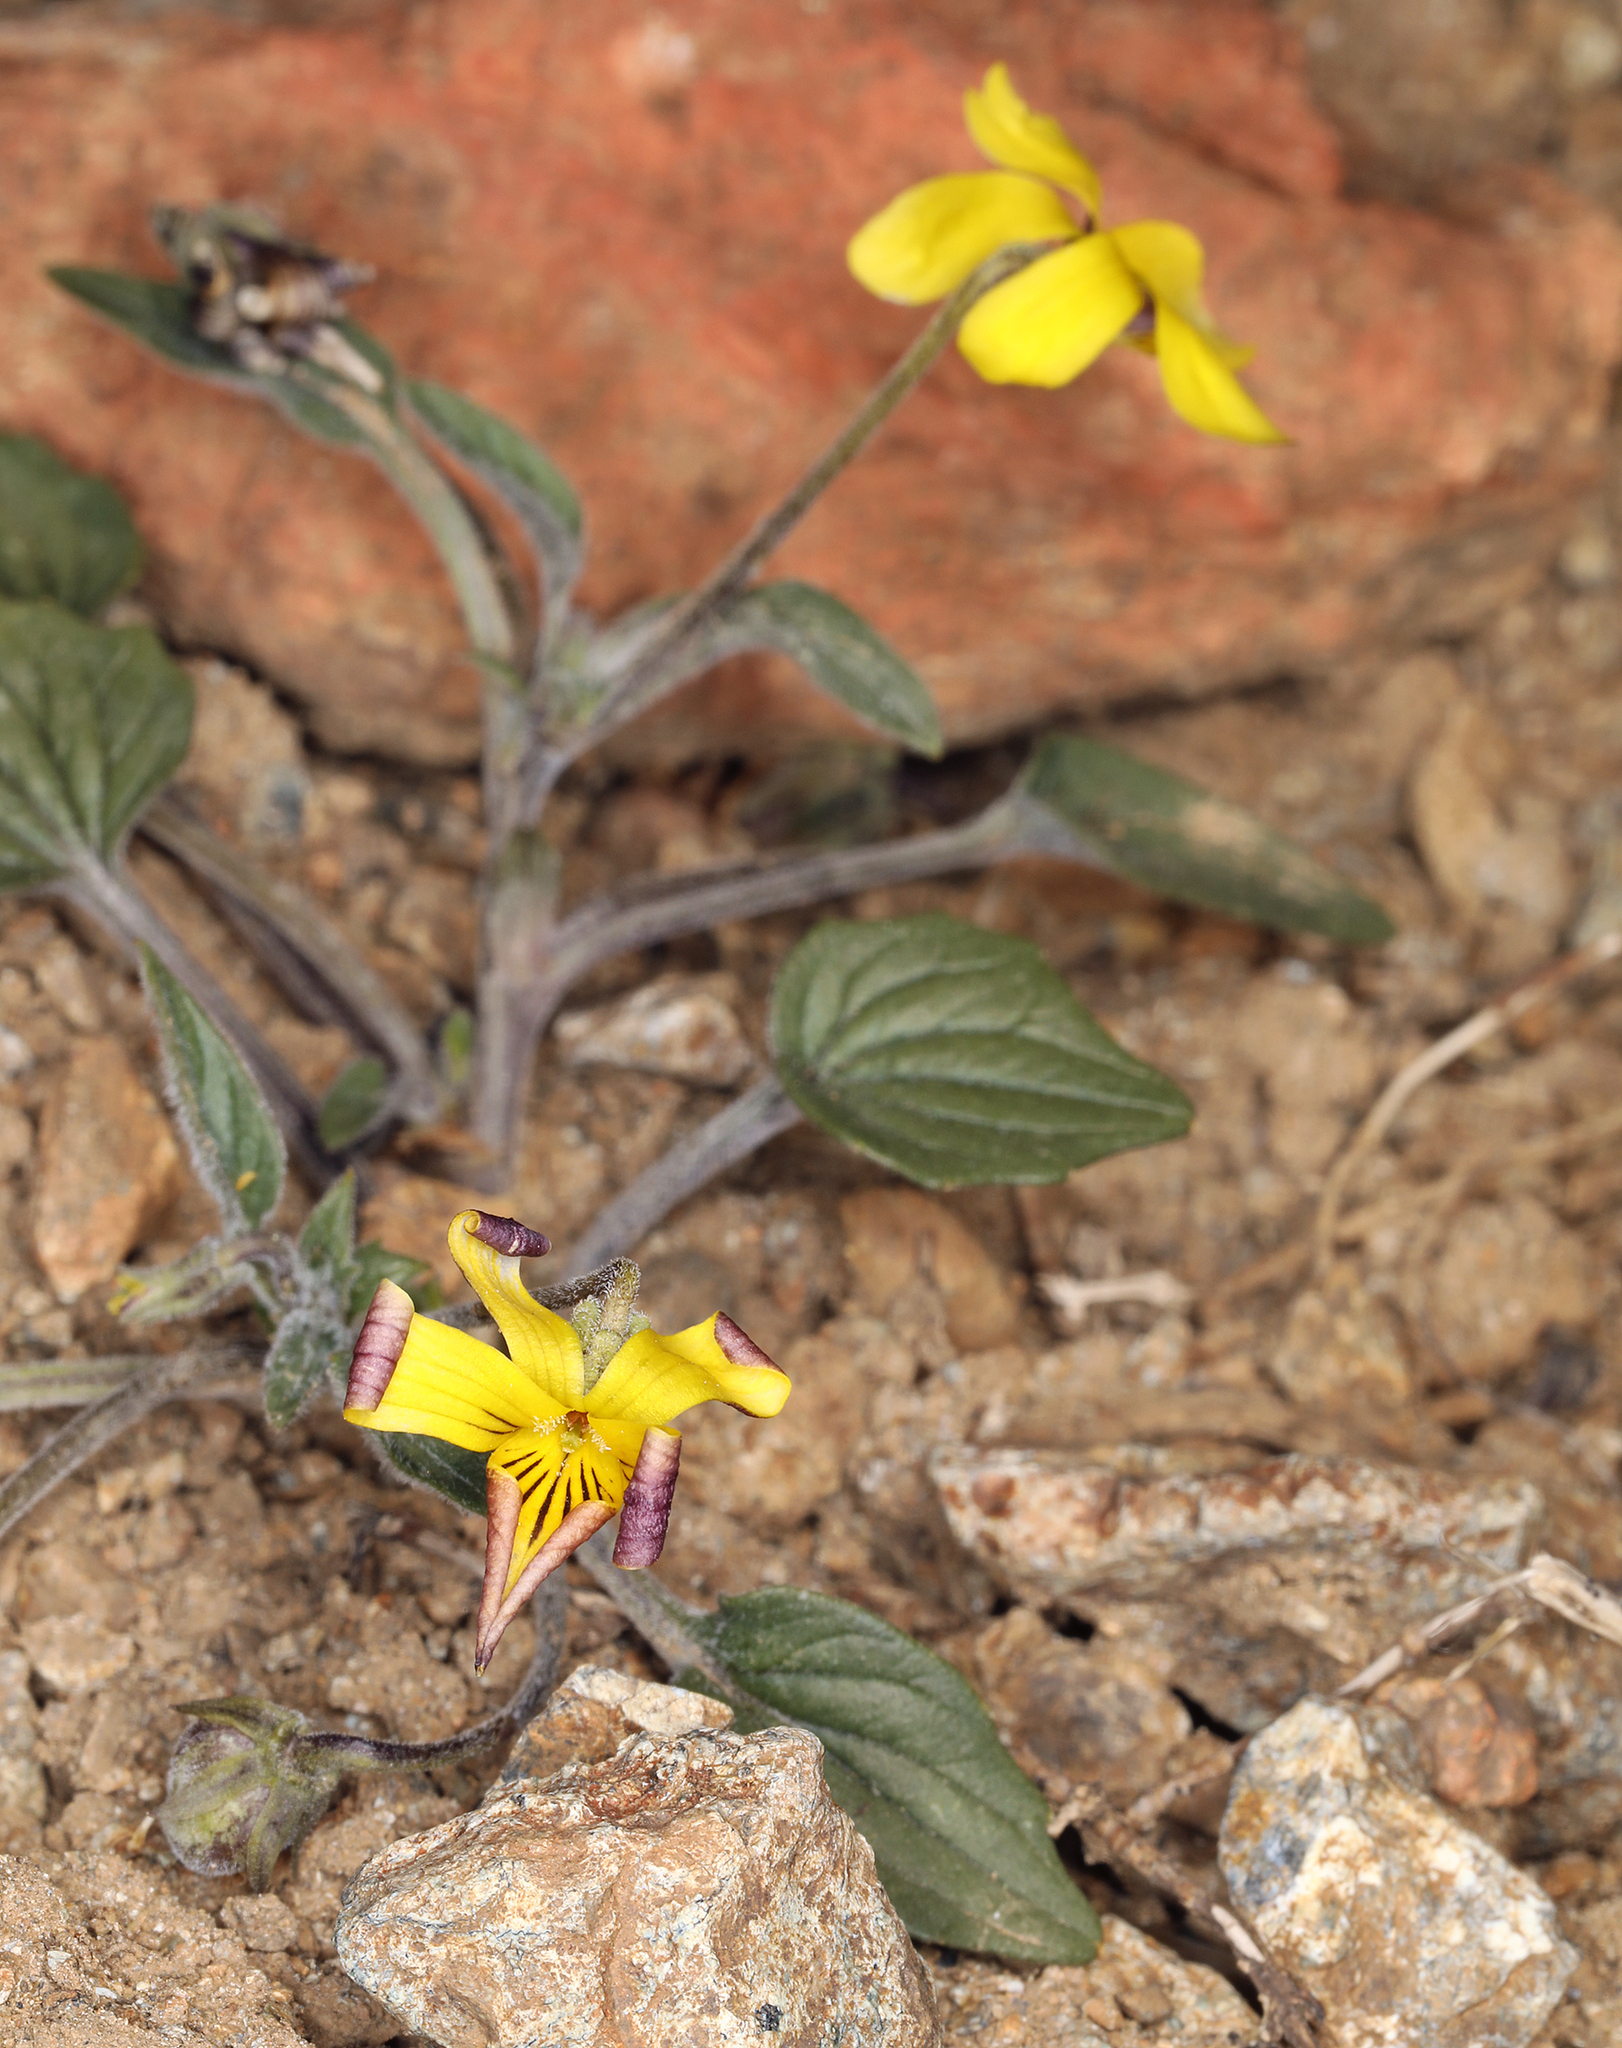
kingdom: Plantae
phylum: Tracheophyta
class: Magnoliopsida
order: Malpighiales
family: Violaceae
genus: Viola
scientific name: Viola purpurea
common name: Pine violet
